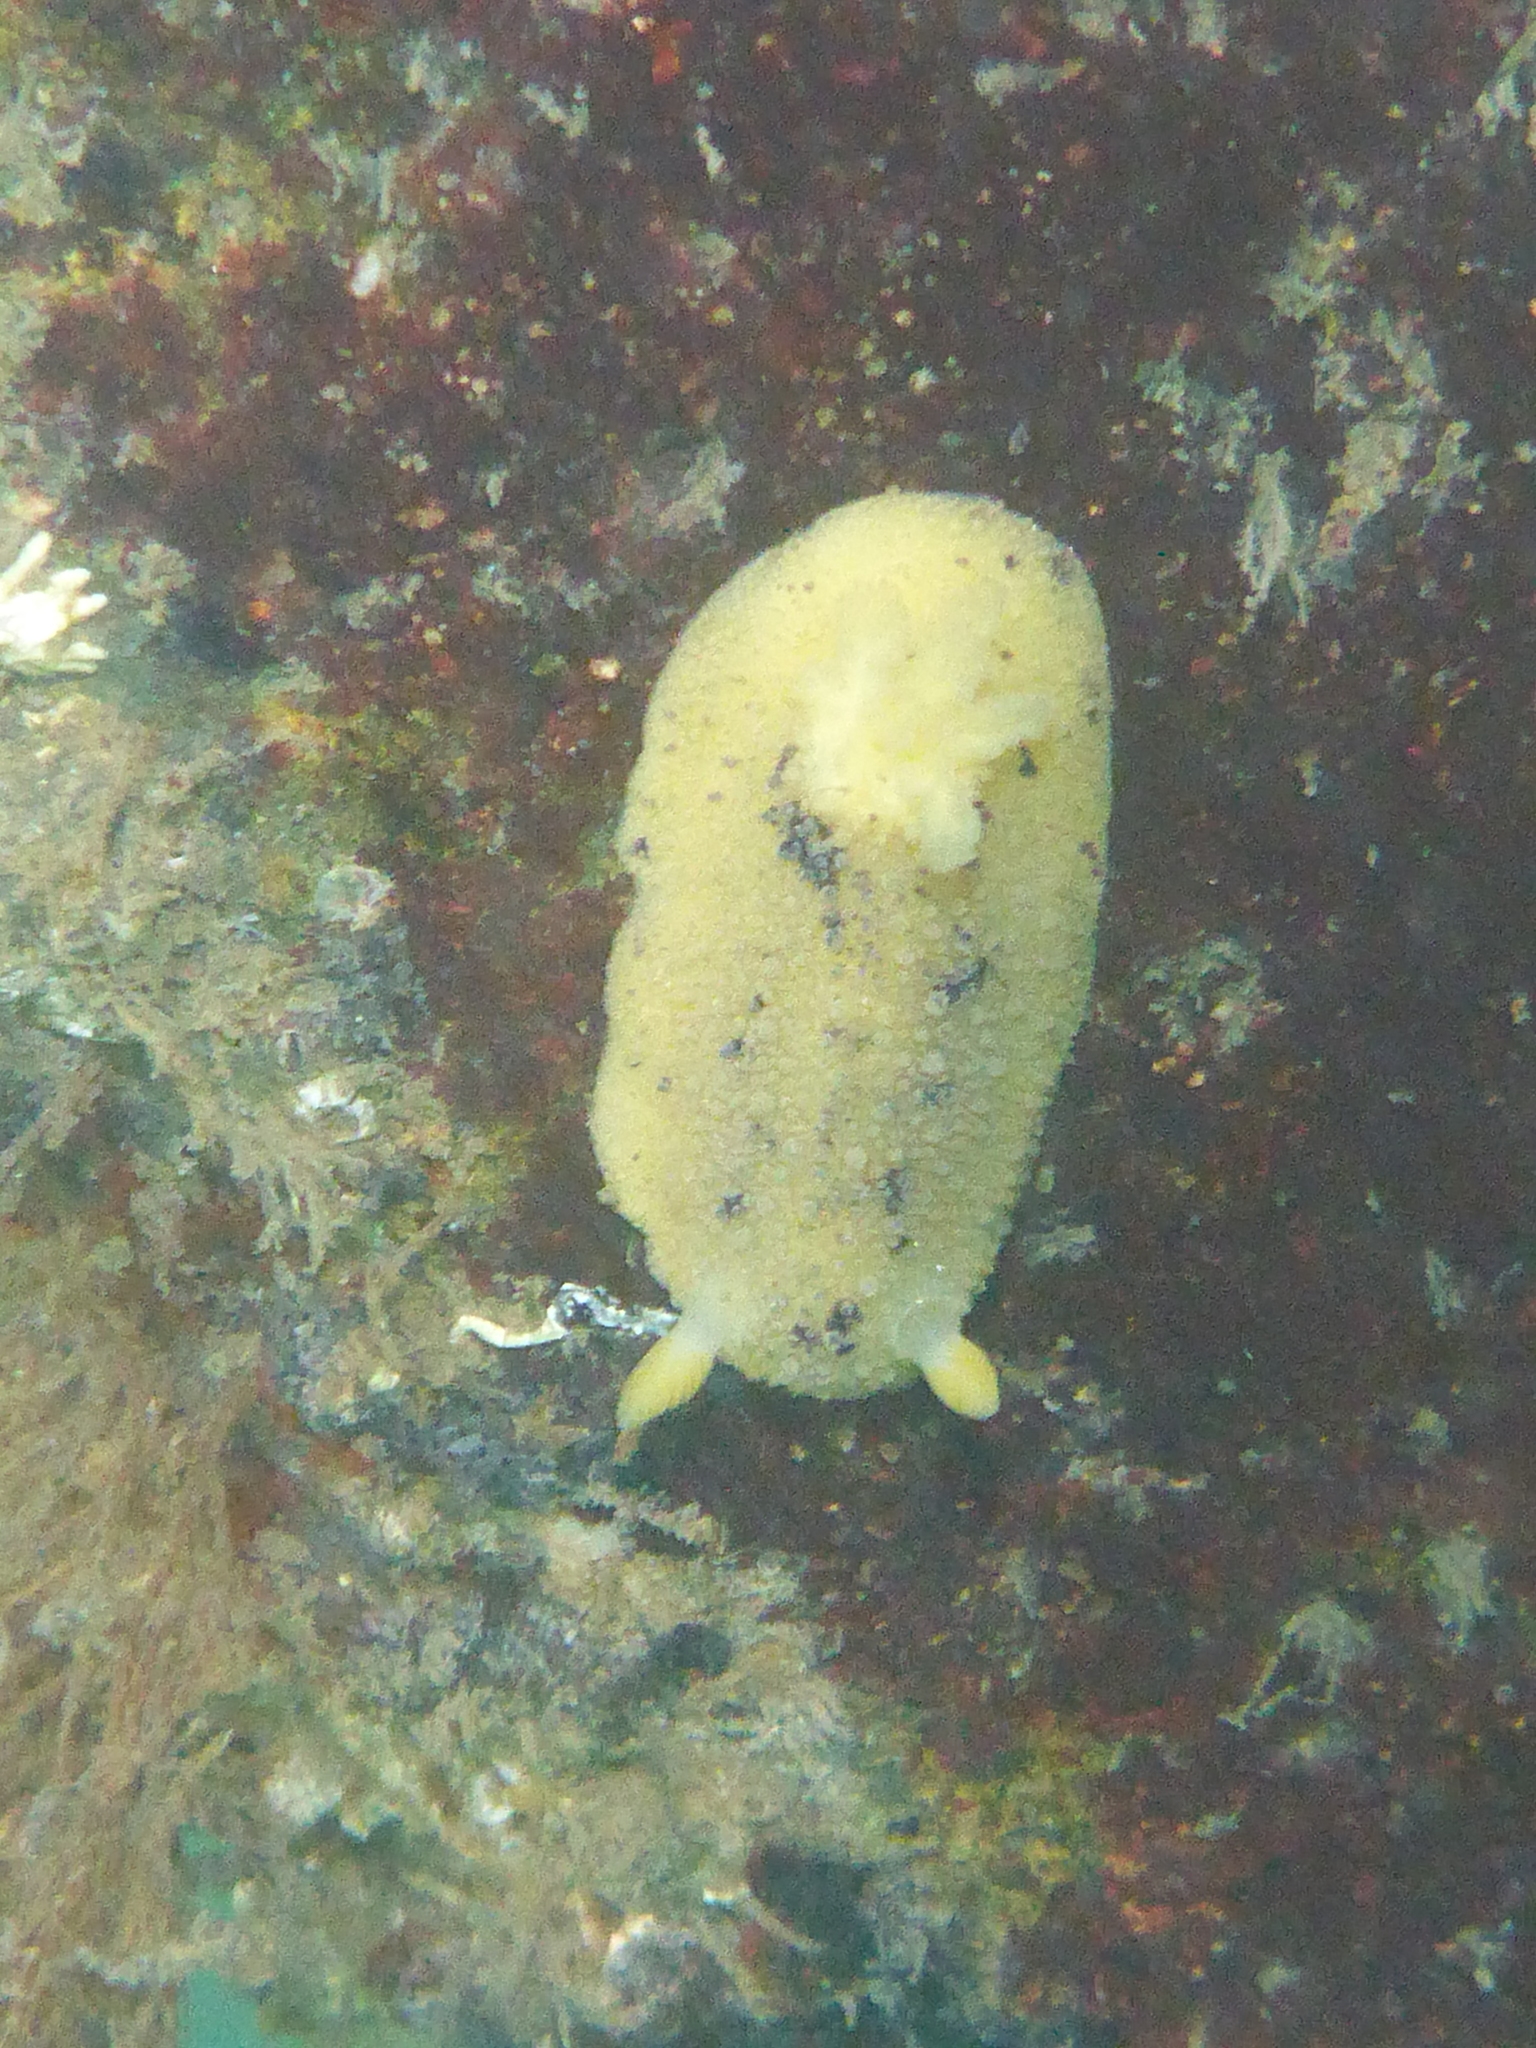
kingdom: Animalia
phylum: Mollusca
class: Gastropoda
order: Nudibranchia
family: Dorididae
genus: Doris
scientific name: Doris montereyensis
